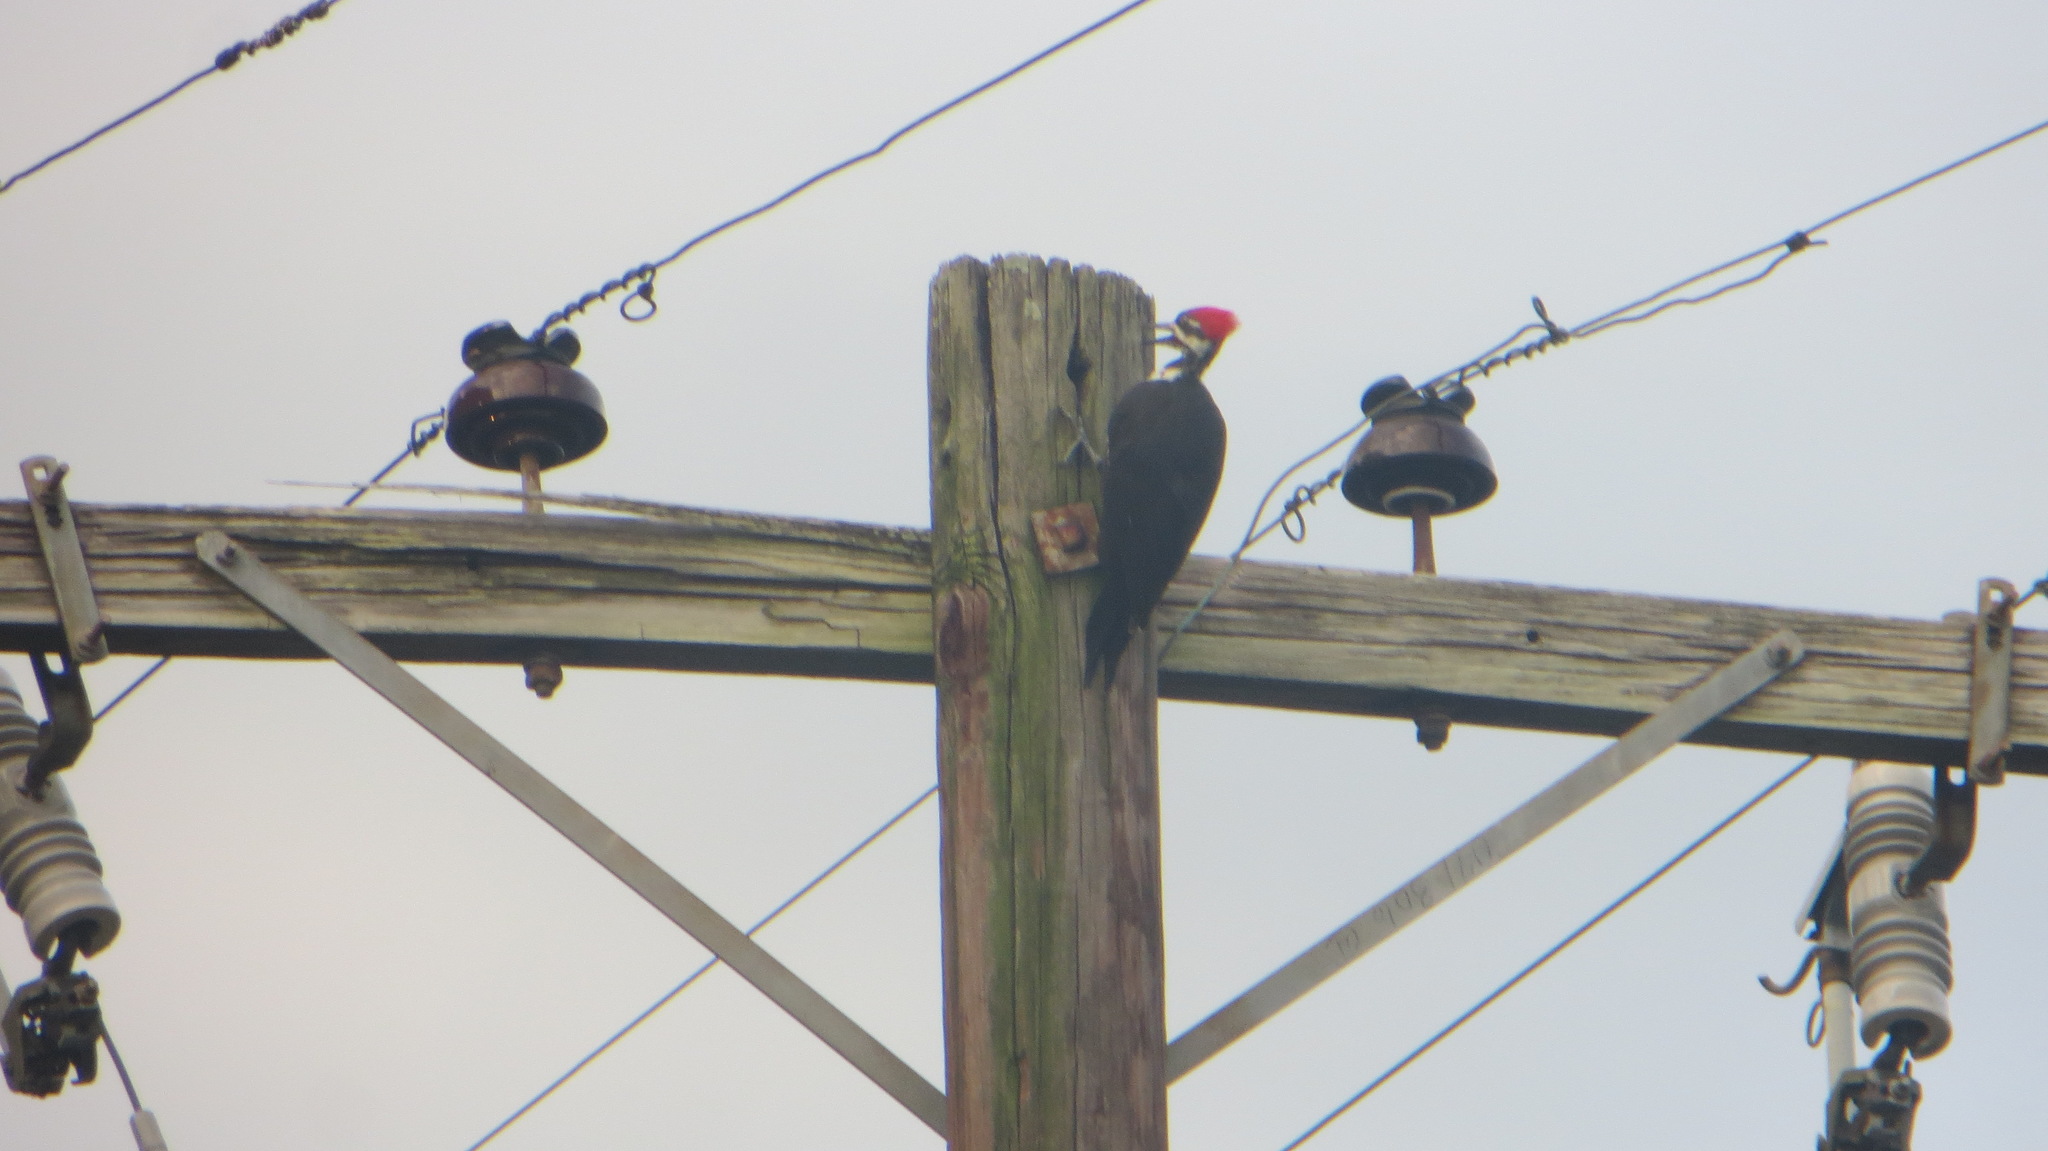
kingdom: Animalia
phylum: Chordata
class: Aves
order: Piciformes
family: Picidae
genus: Dryocopus
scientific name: Dryocopus pileatus
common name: Pileated woodpecker
